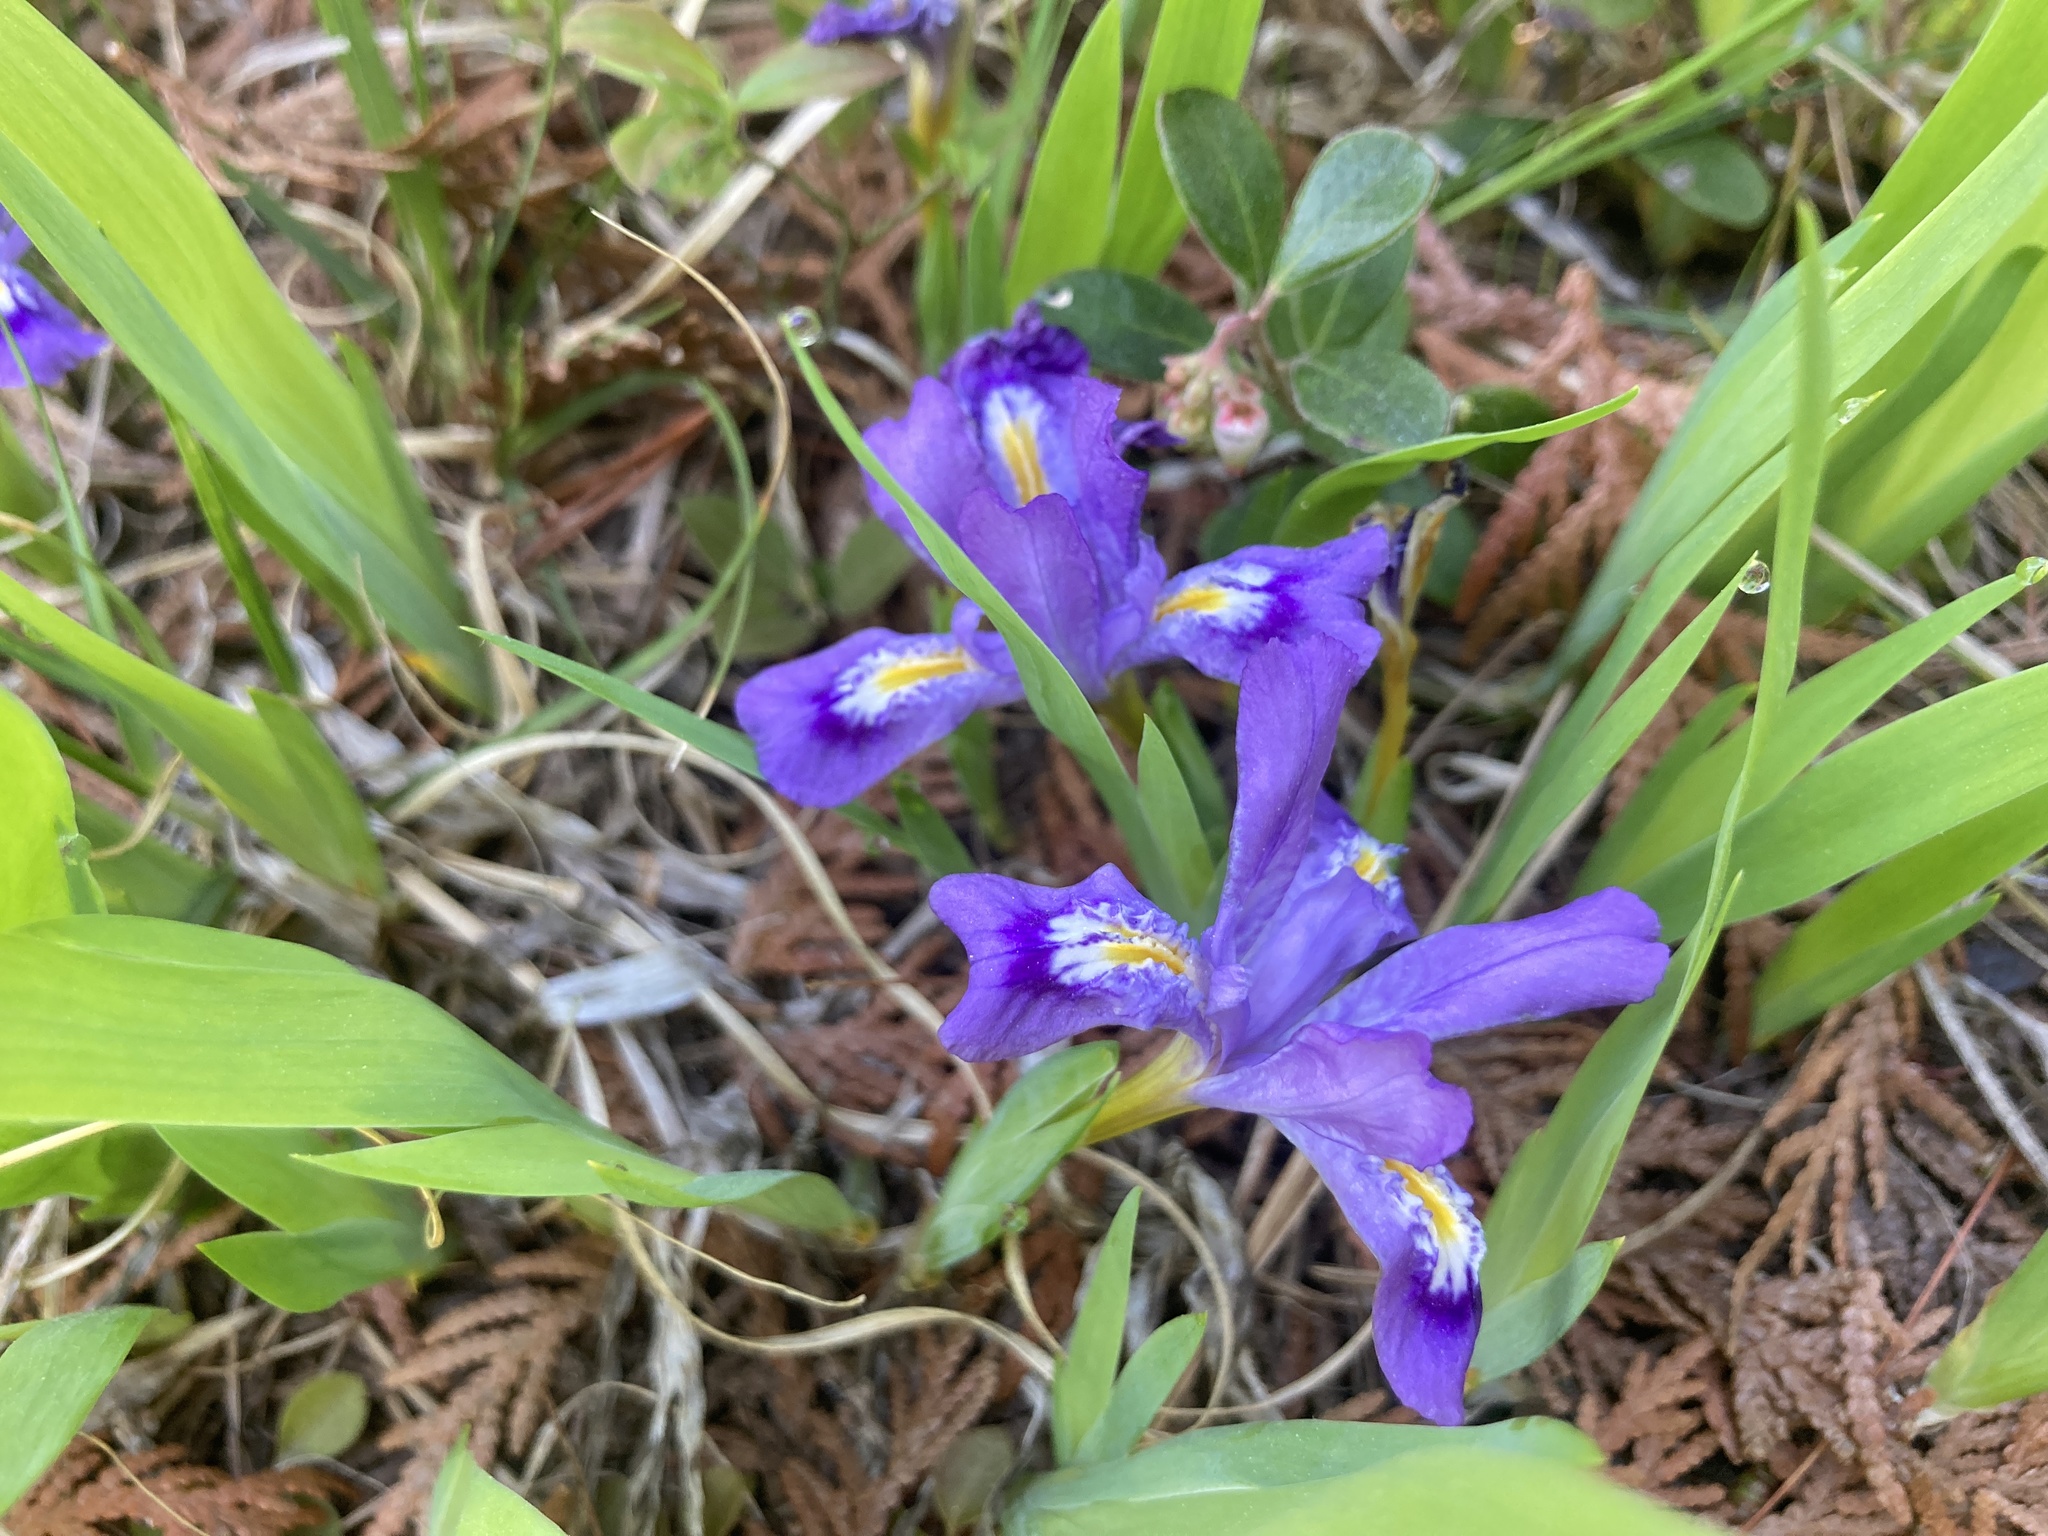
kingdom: Plantae
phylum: Tracheophyta
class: Liliopsida
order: Asparagales
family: Iridaceae
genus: Iris
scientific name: Iris lacustris
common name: Dwarf lake iris
